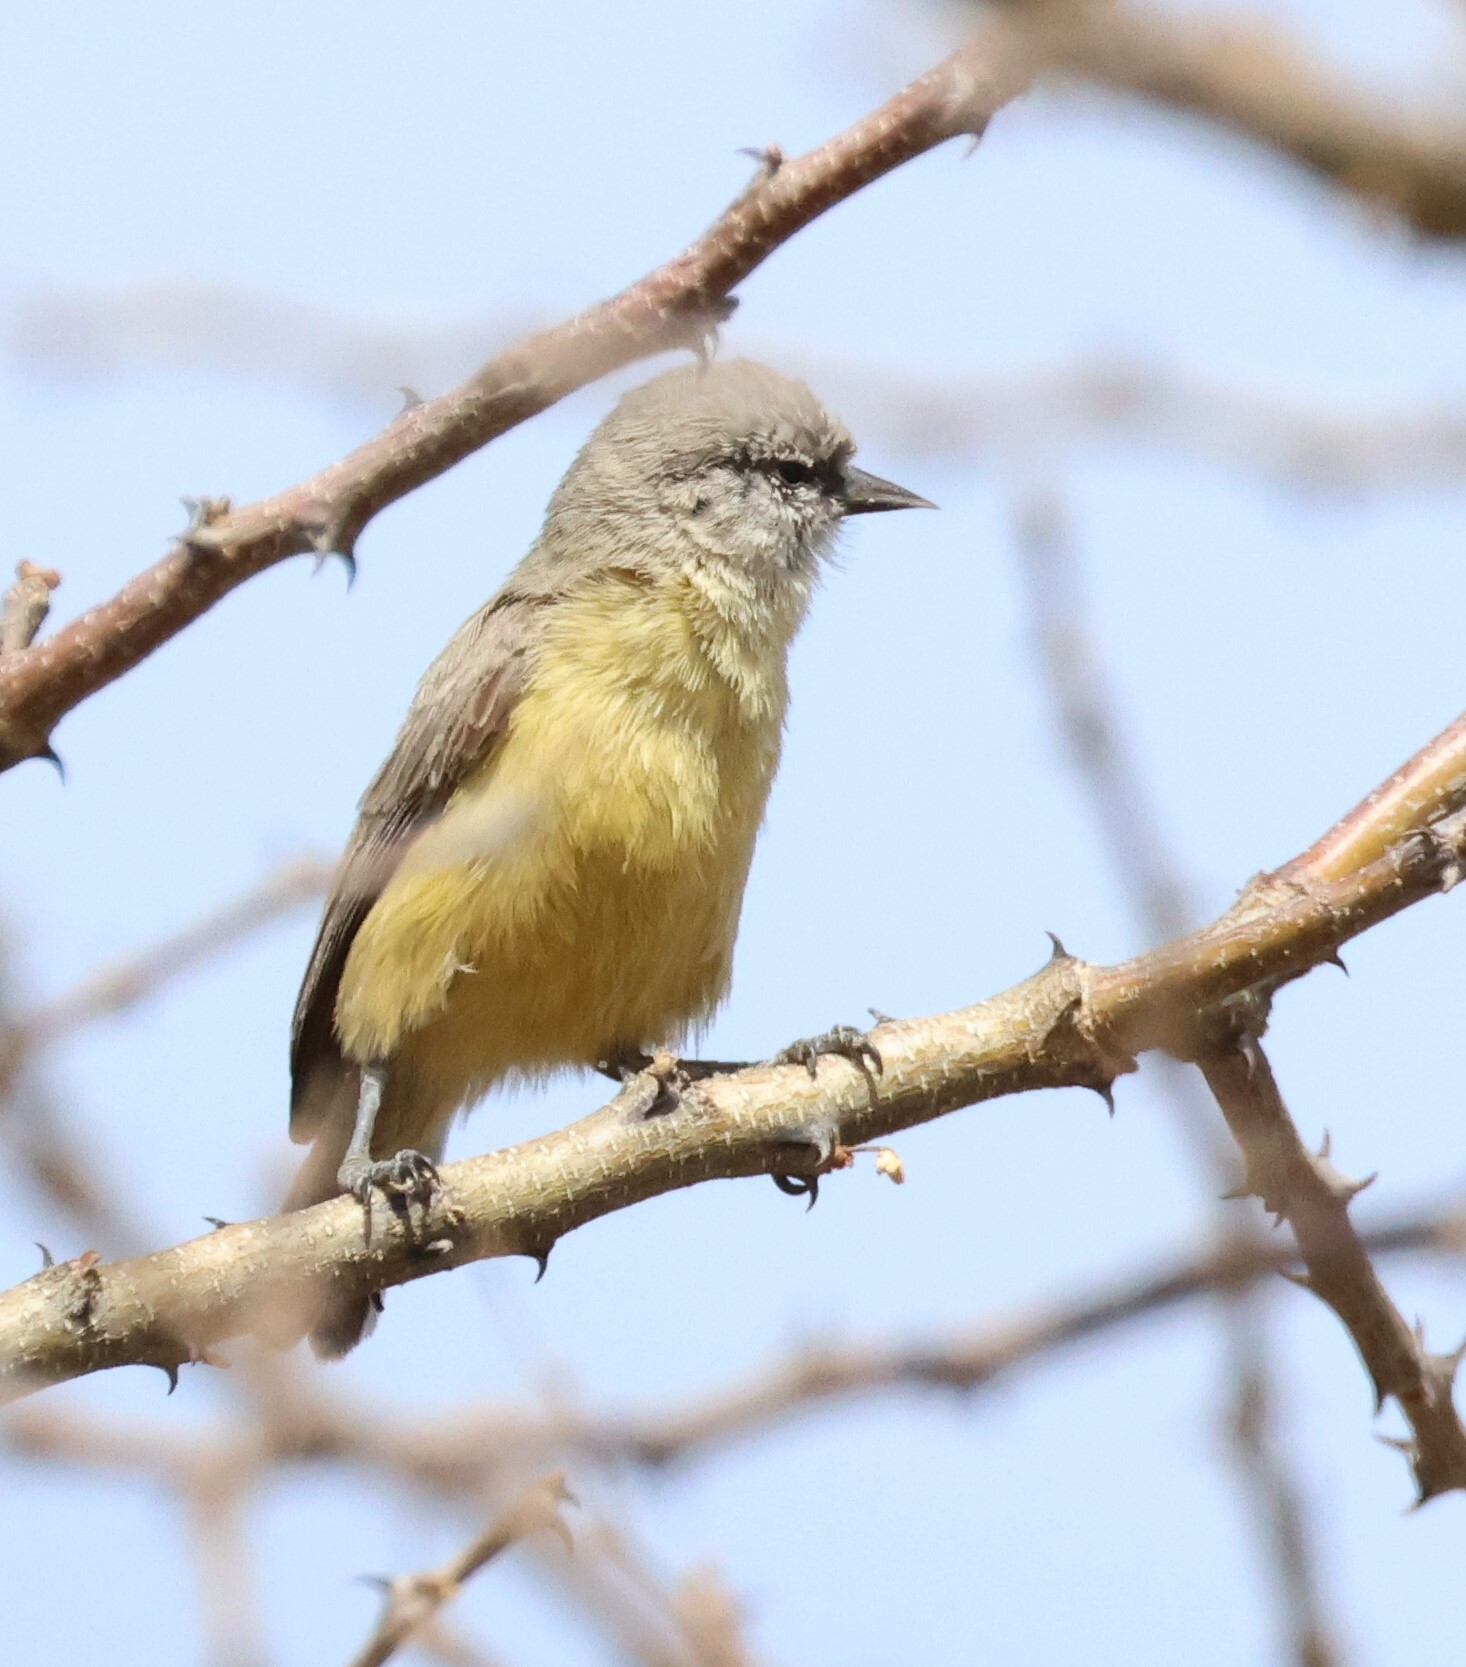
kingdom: Animalia
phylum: Chordata
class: Aves
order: Passeriformes
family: Remizidae
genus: Anthoscopus
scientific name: Anthoscopus minutus
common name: Cape penduline tit
